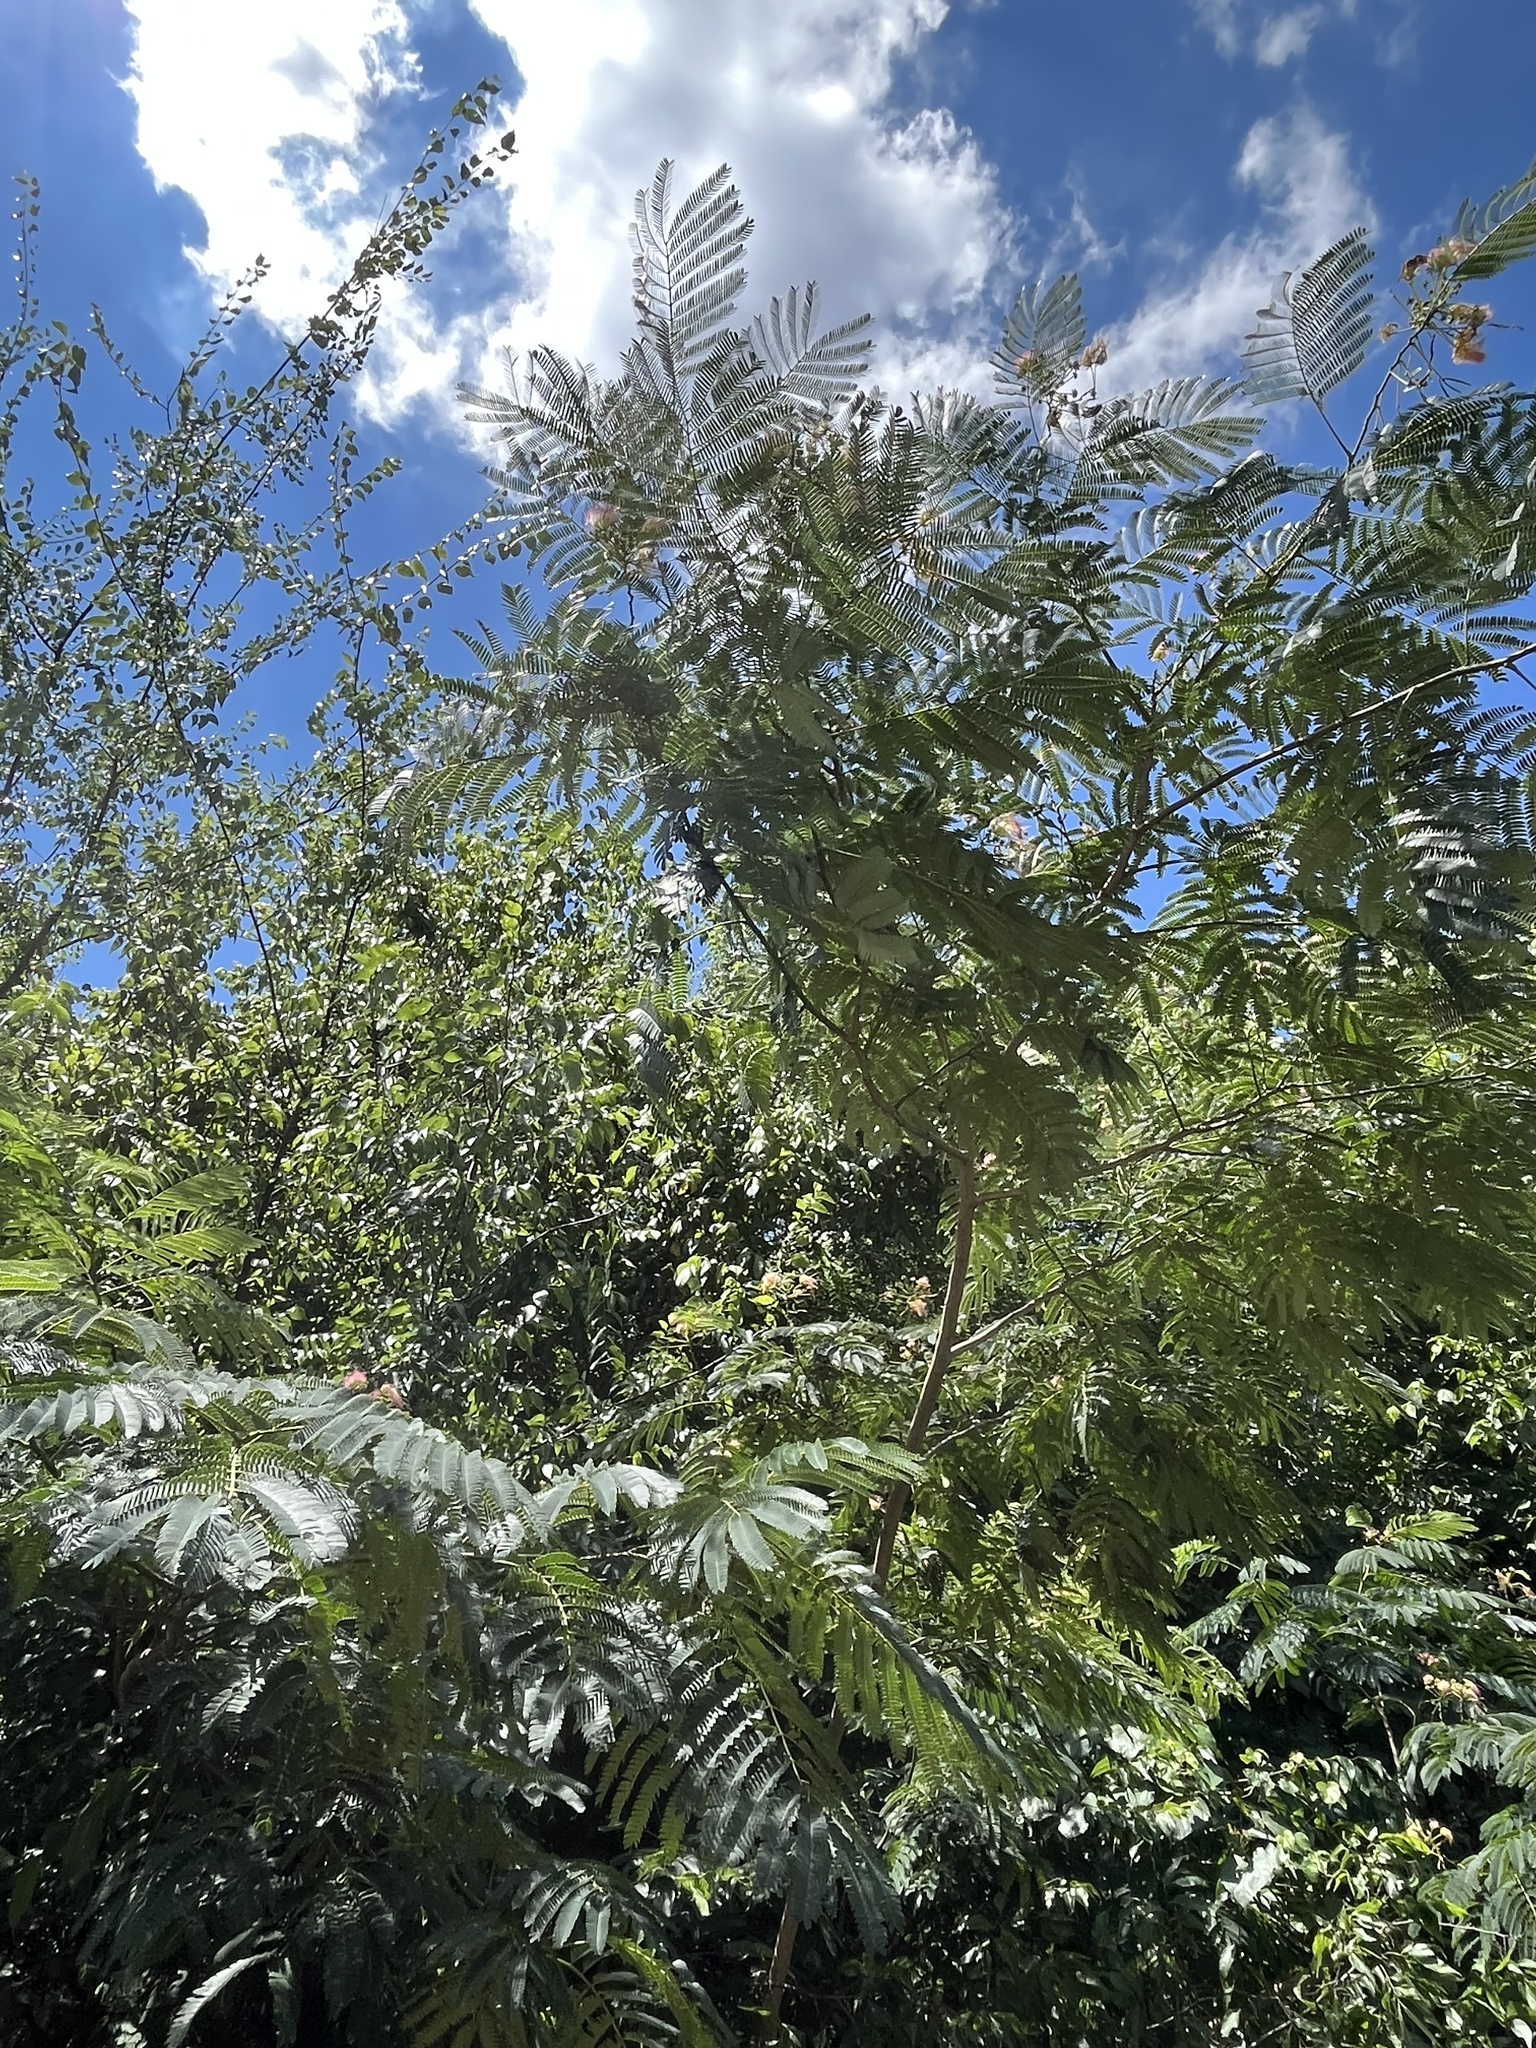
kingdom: Plantae
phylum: Tracheophyta
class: Magnoliopsida
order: Fabales
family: Fabaceae
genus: Albizia
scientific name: Albizia julibrissin
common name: Silktree
